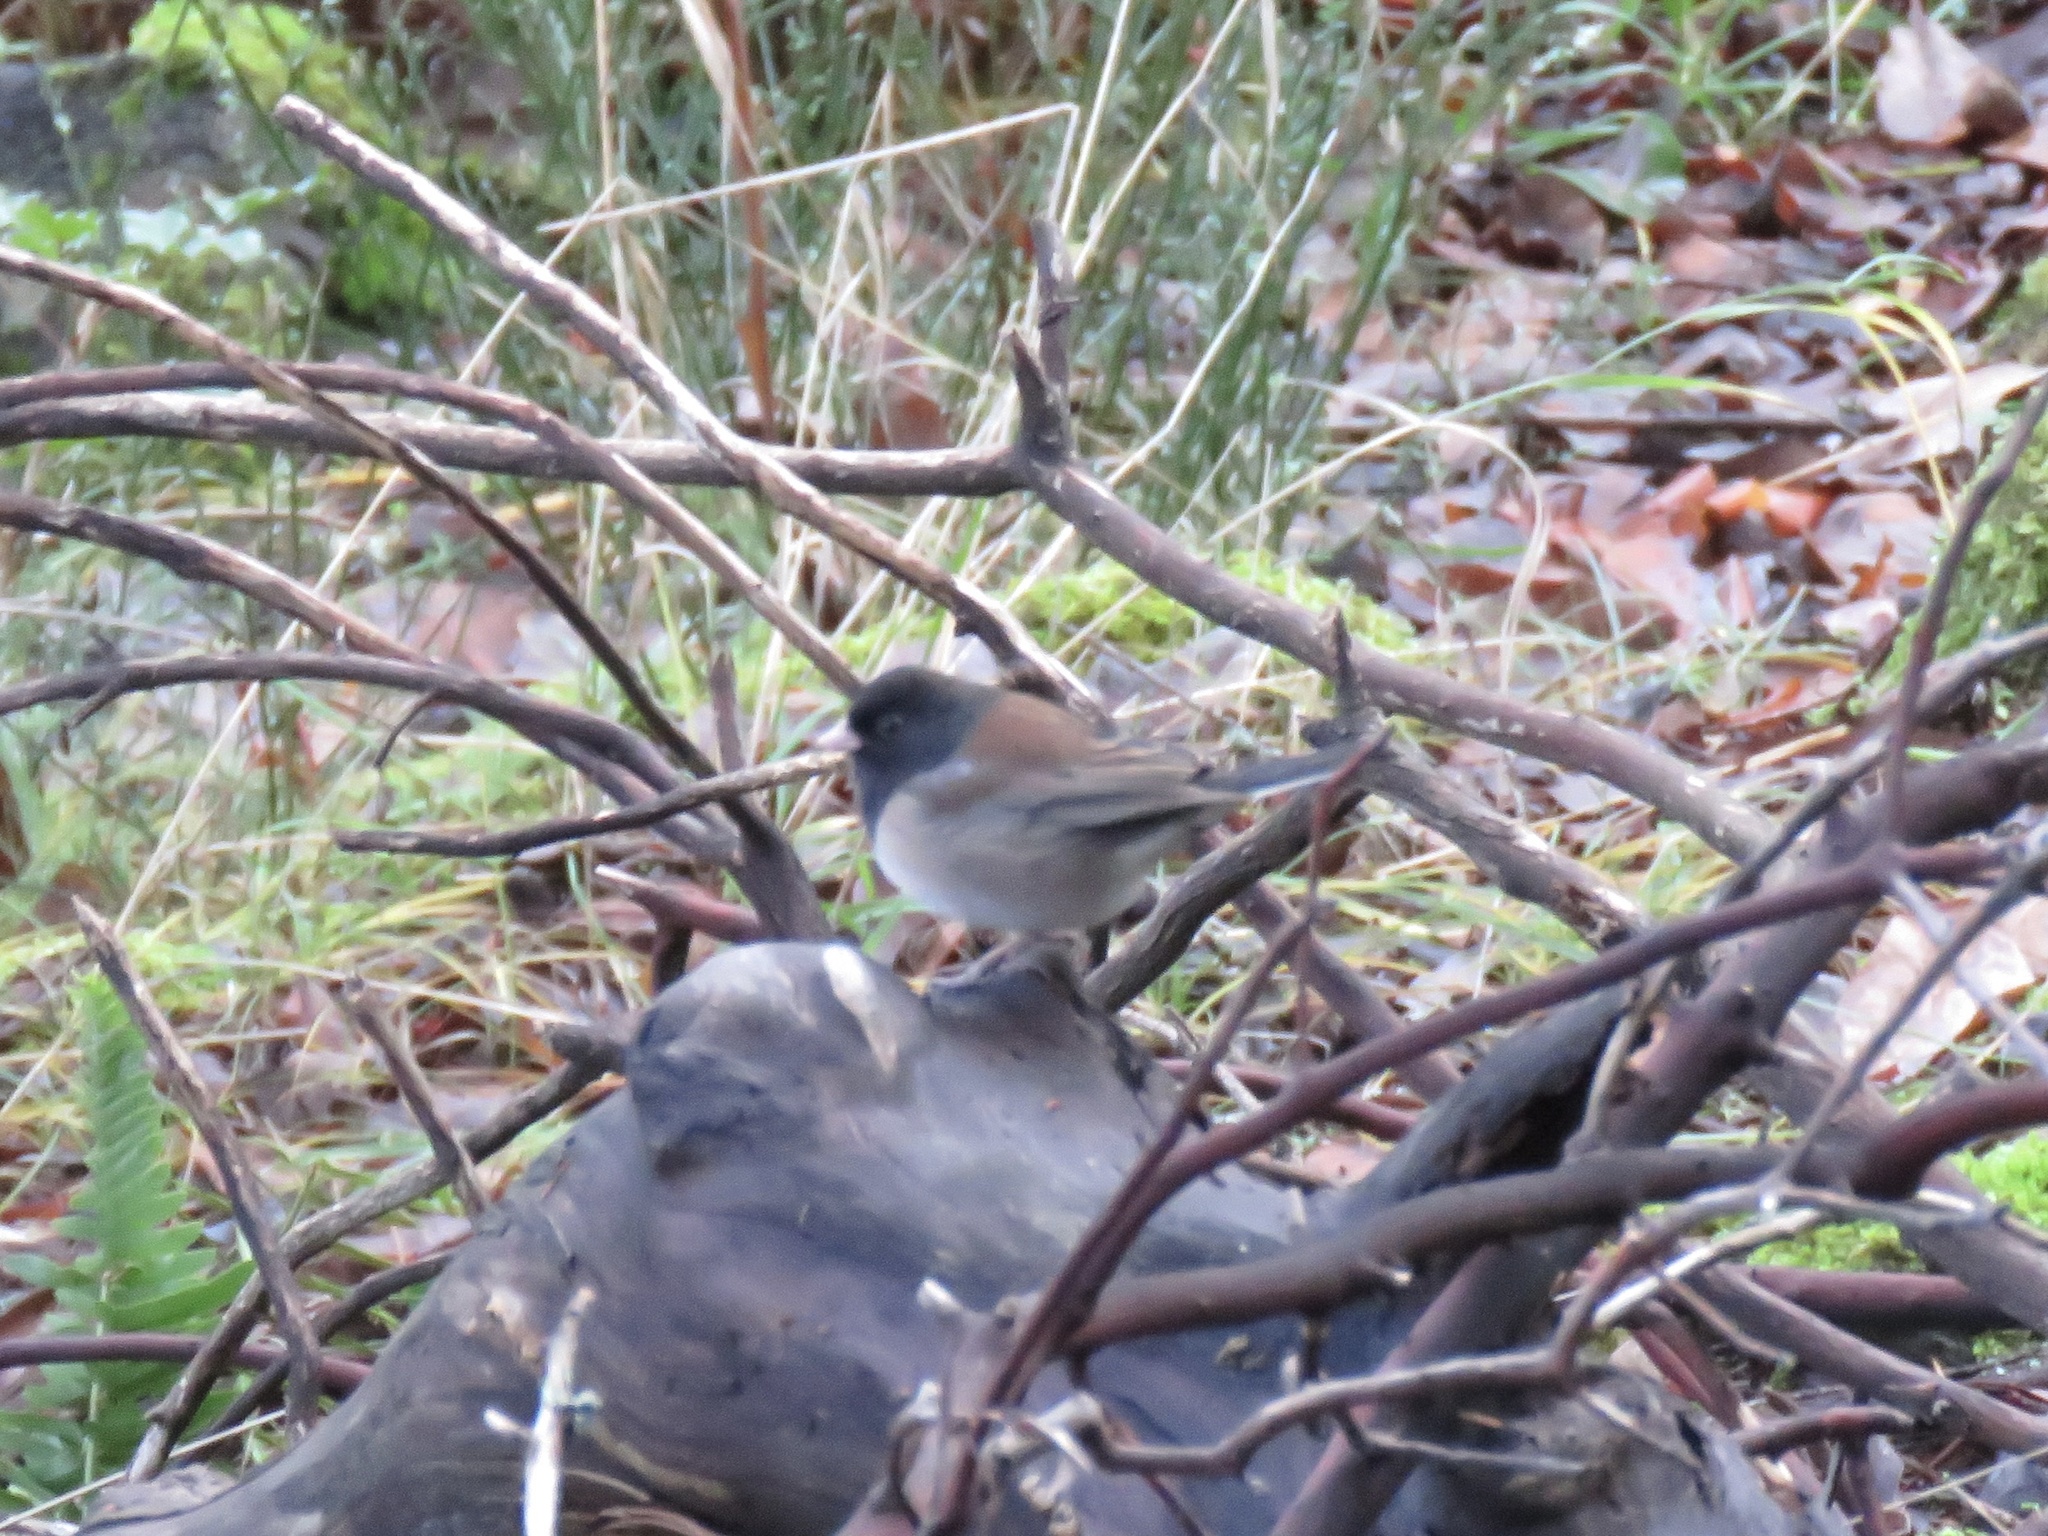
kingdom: Animalia
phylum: Chordata
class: Aves
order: Passeriformes
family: Passerellidae
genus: Junco
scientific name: Junco hyemalis
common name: Dark-eyed junco
